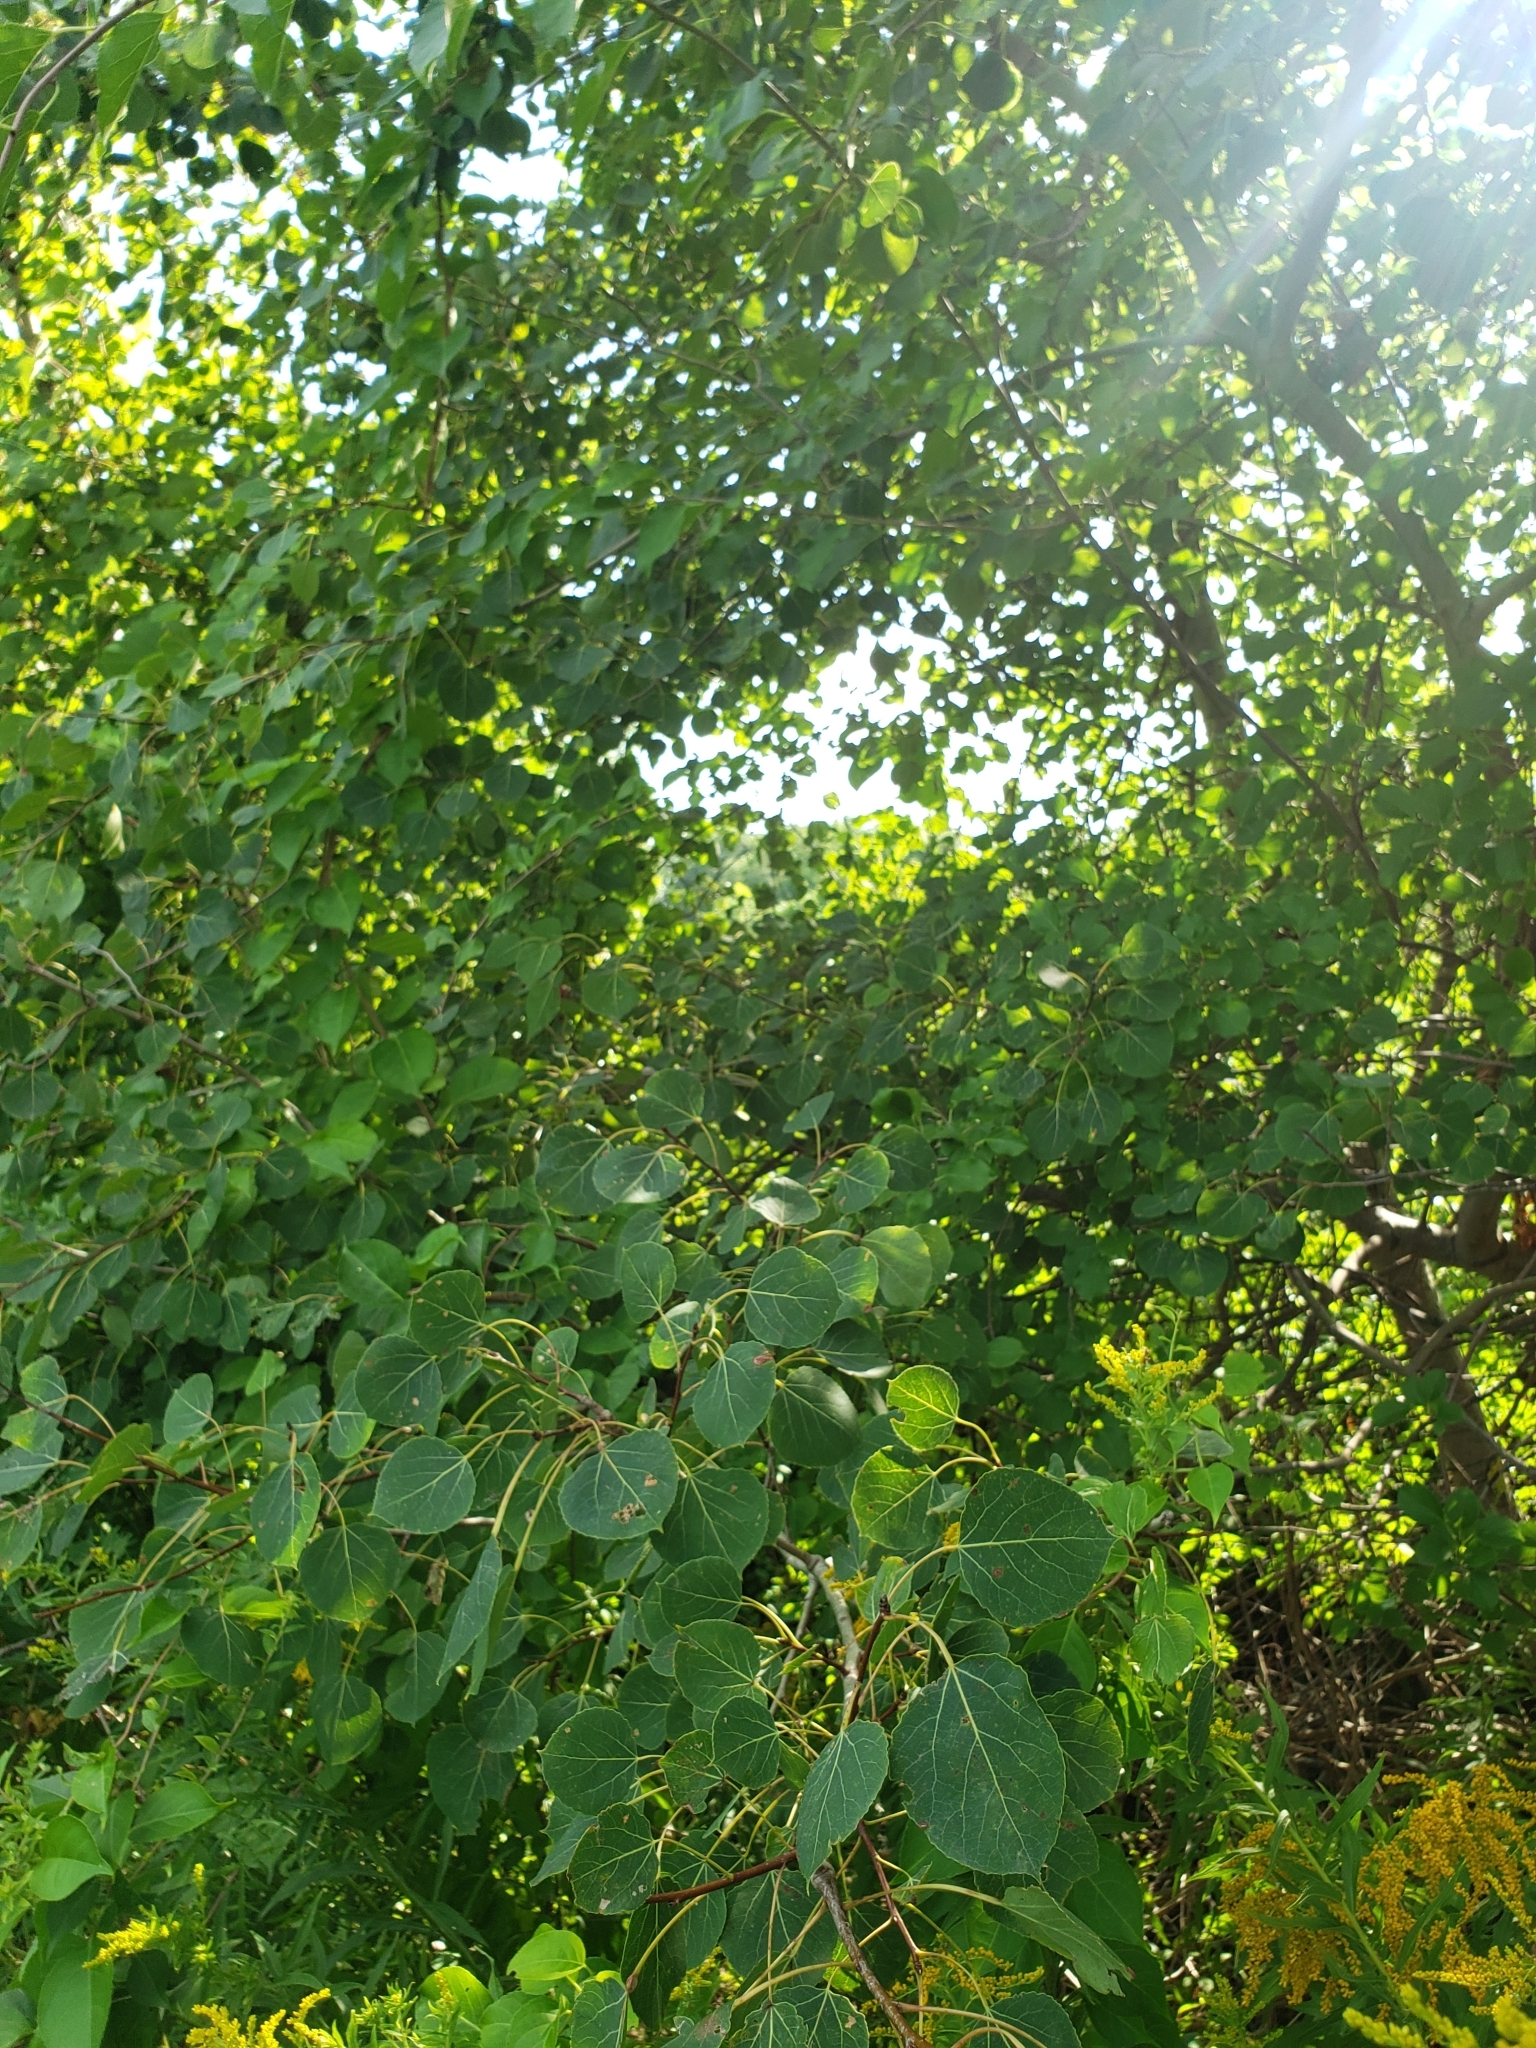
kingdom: Plantae
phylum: Tracheophyta
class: Magnoliopsida
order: Malpighiales
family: Salicaceae
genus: Populus
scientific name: Populus tremuloides
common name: Quaking aspen
